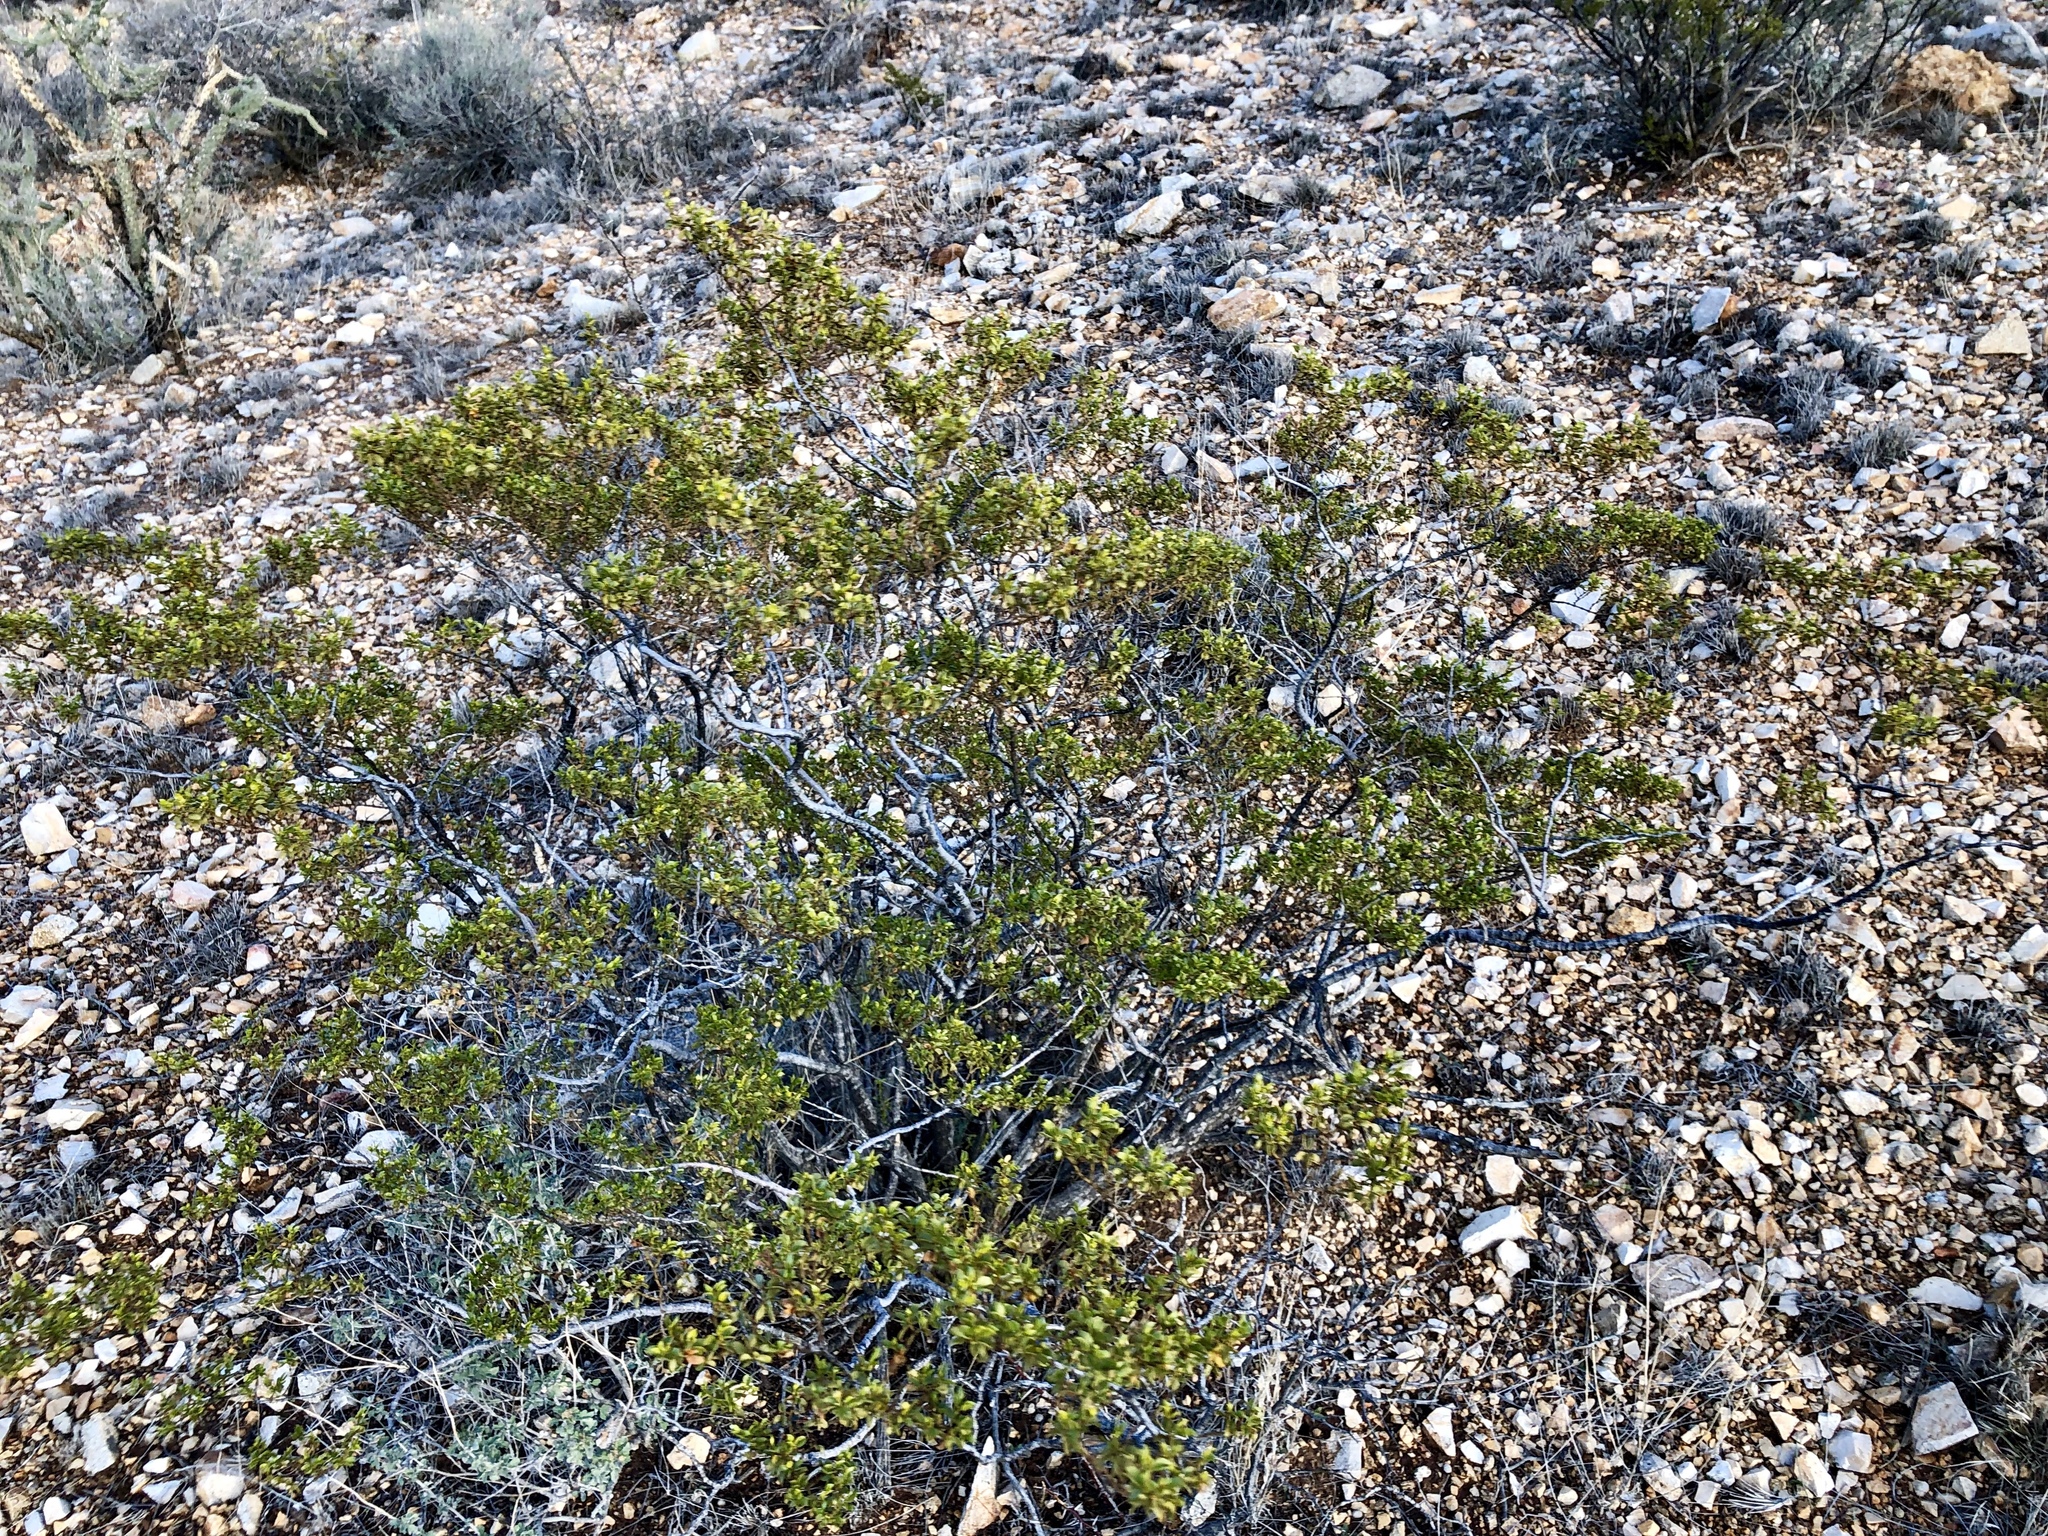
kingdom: Plantae
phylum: Tracheophyta
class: Magnoliopsida
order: Zygophyllales
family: Zygophyllaceae
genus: Larrea
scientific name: Larrea tridentata
